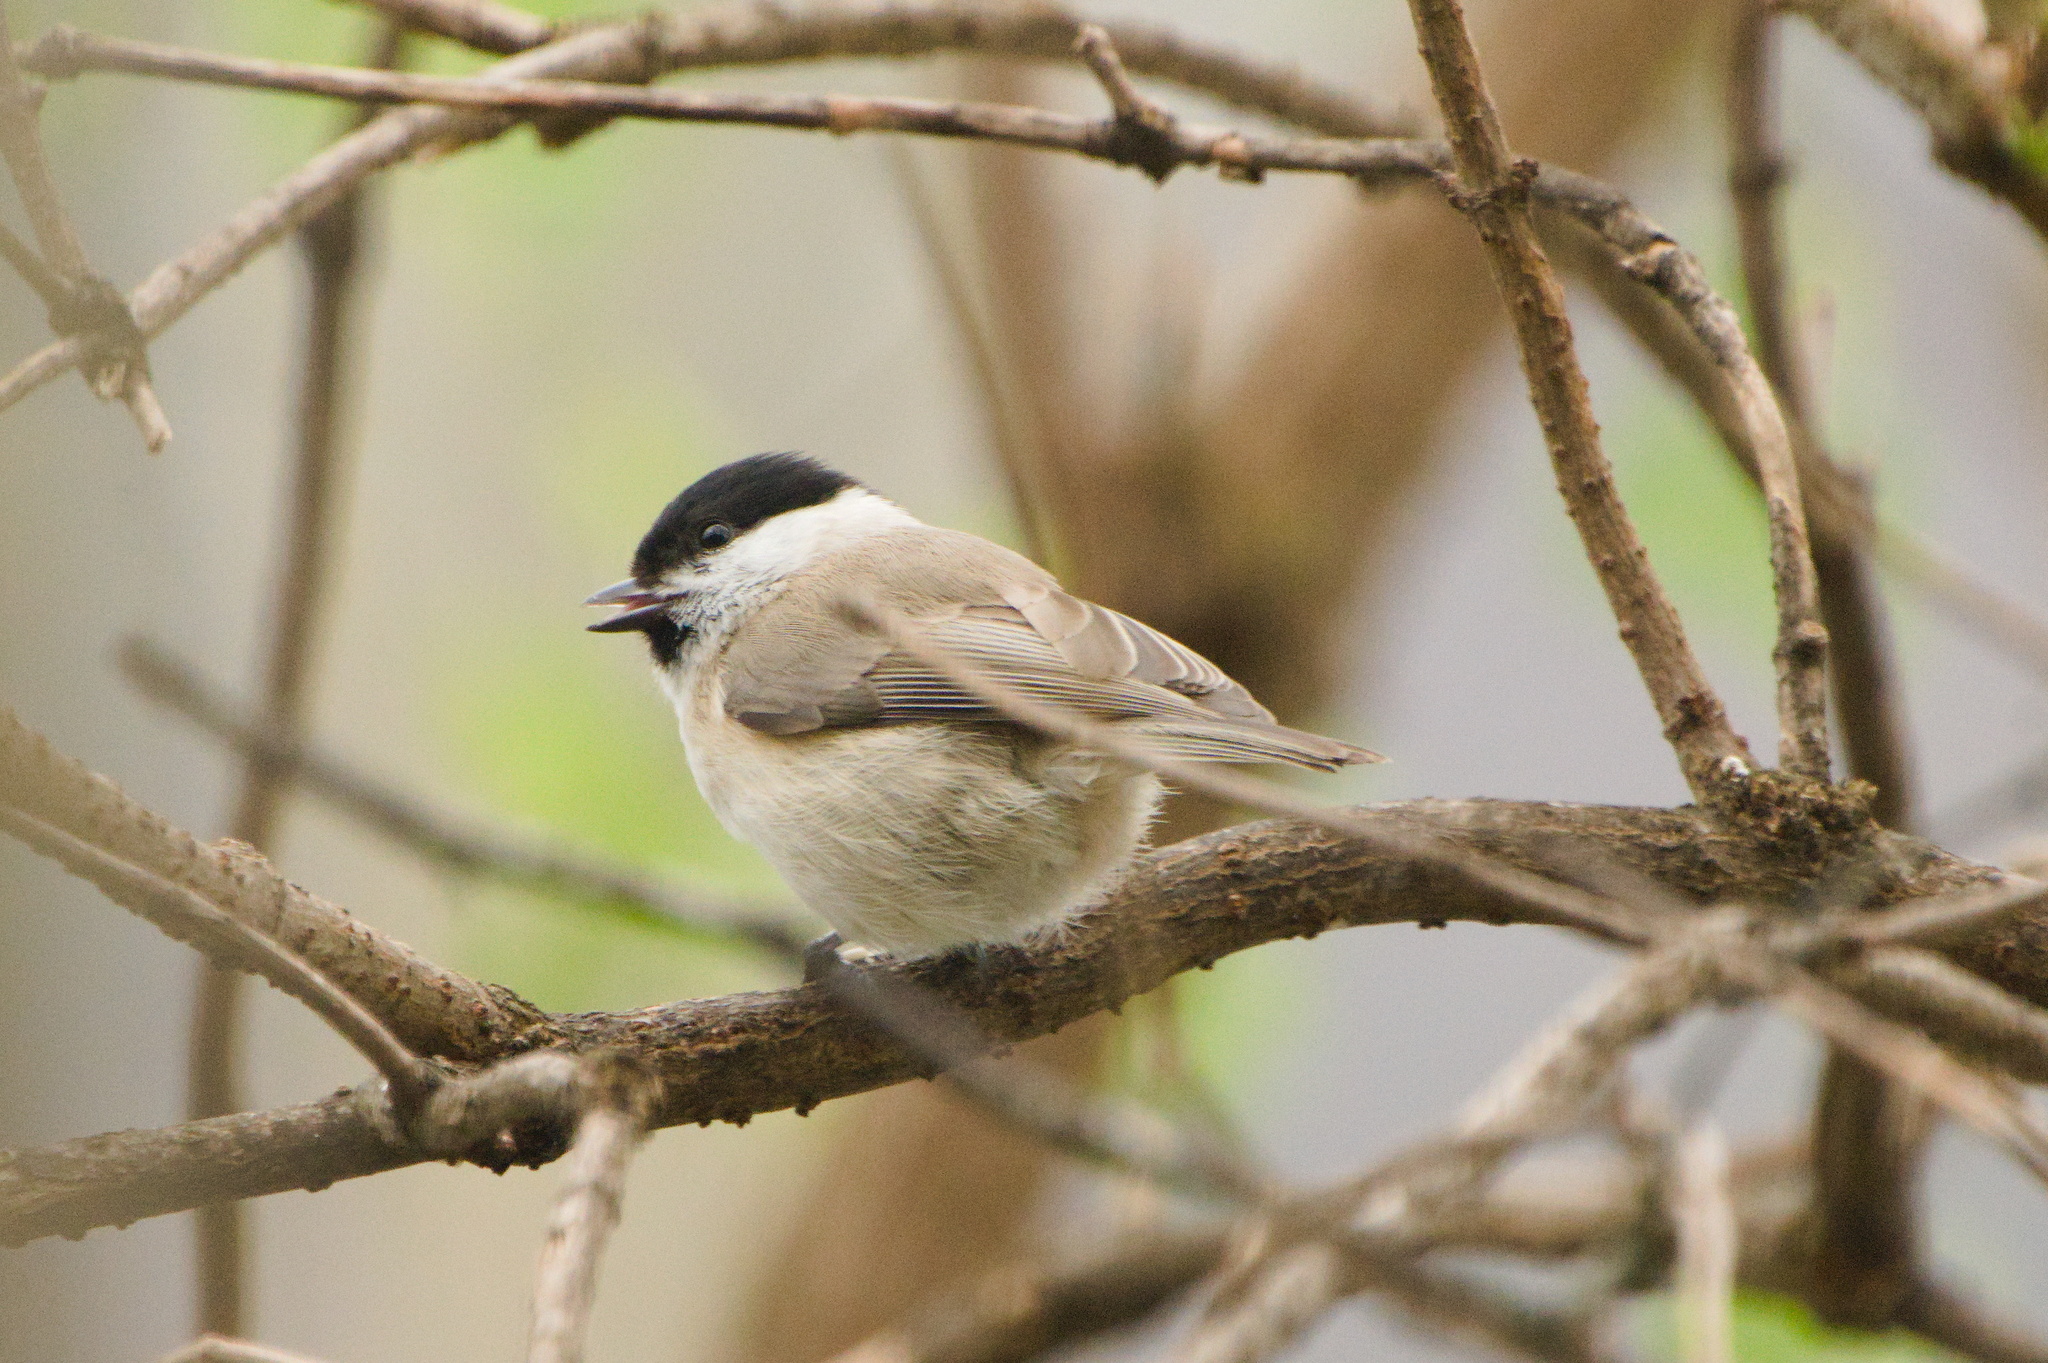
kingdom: Animalia
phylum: Chordata
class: Aves
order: Passeriformes
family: Paridae
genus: Poecile
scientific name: Poecile palustris
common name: Marsh tit
